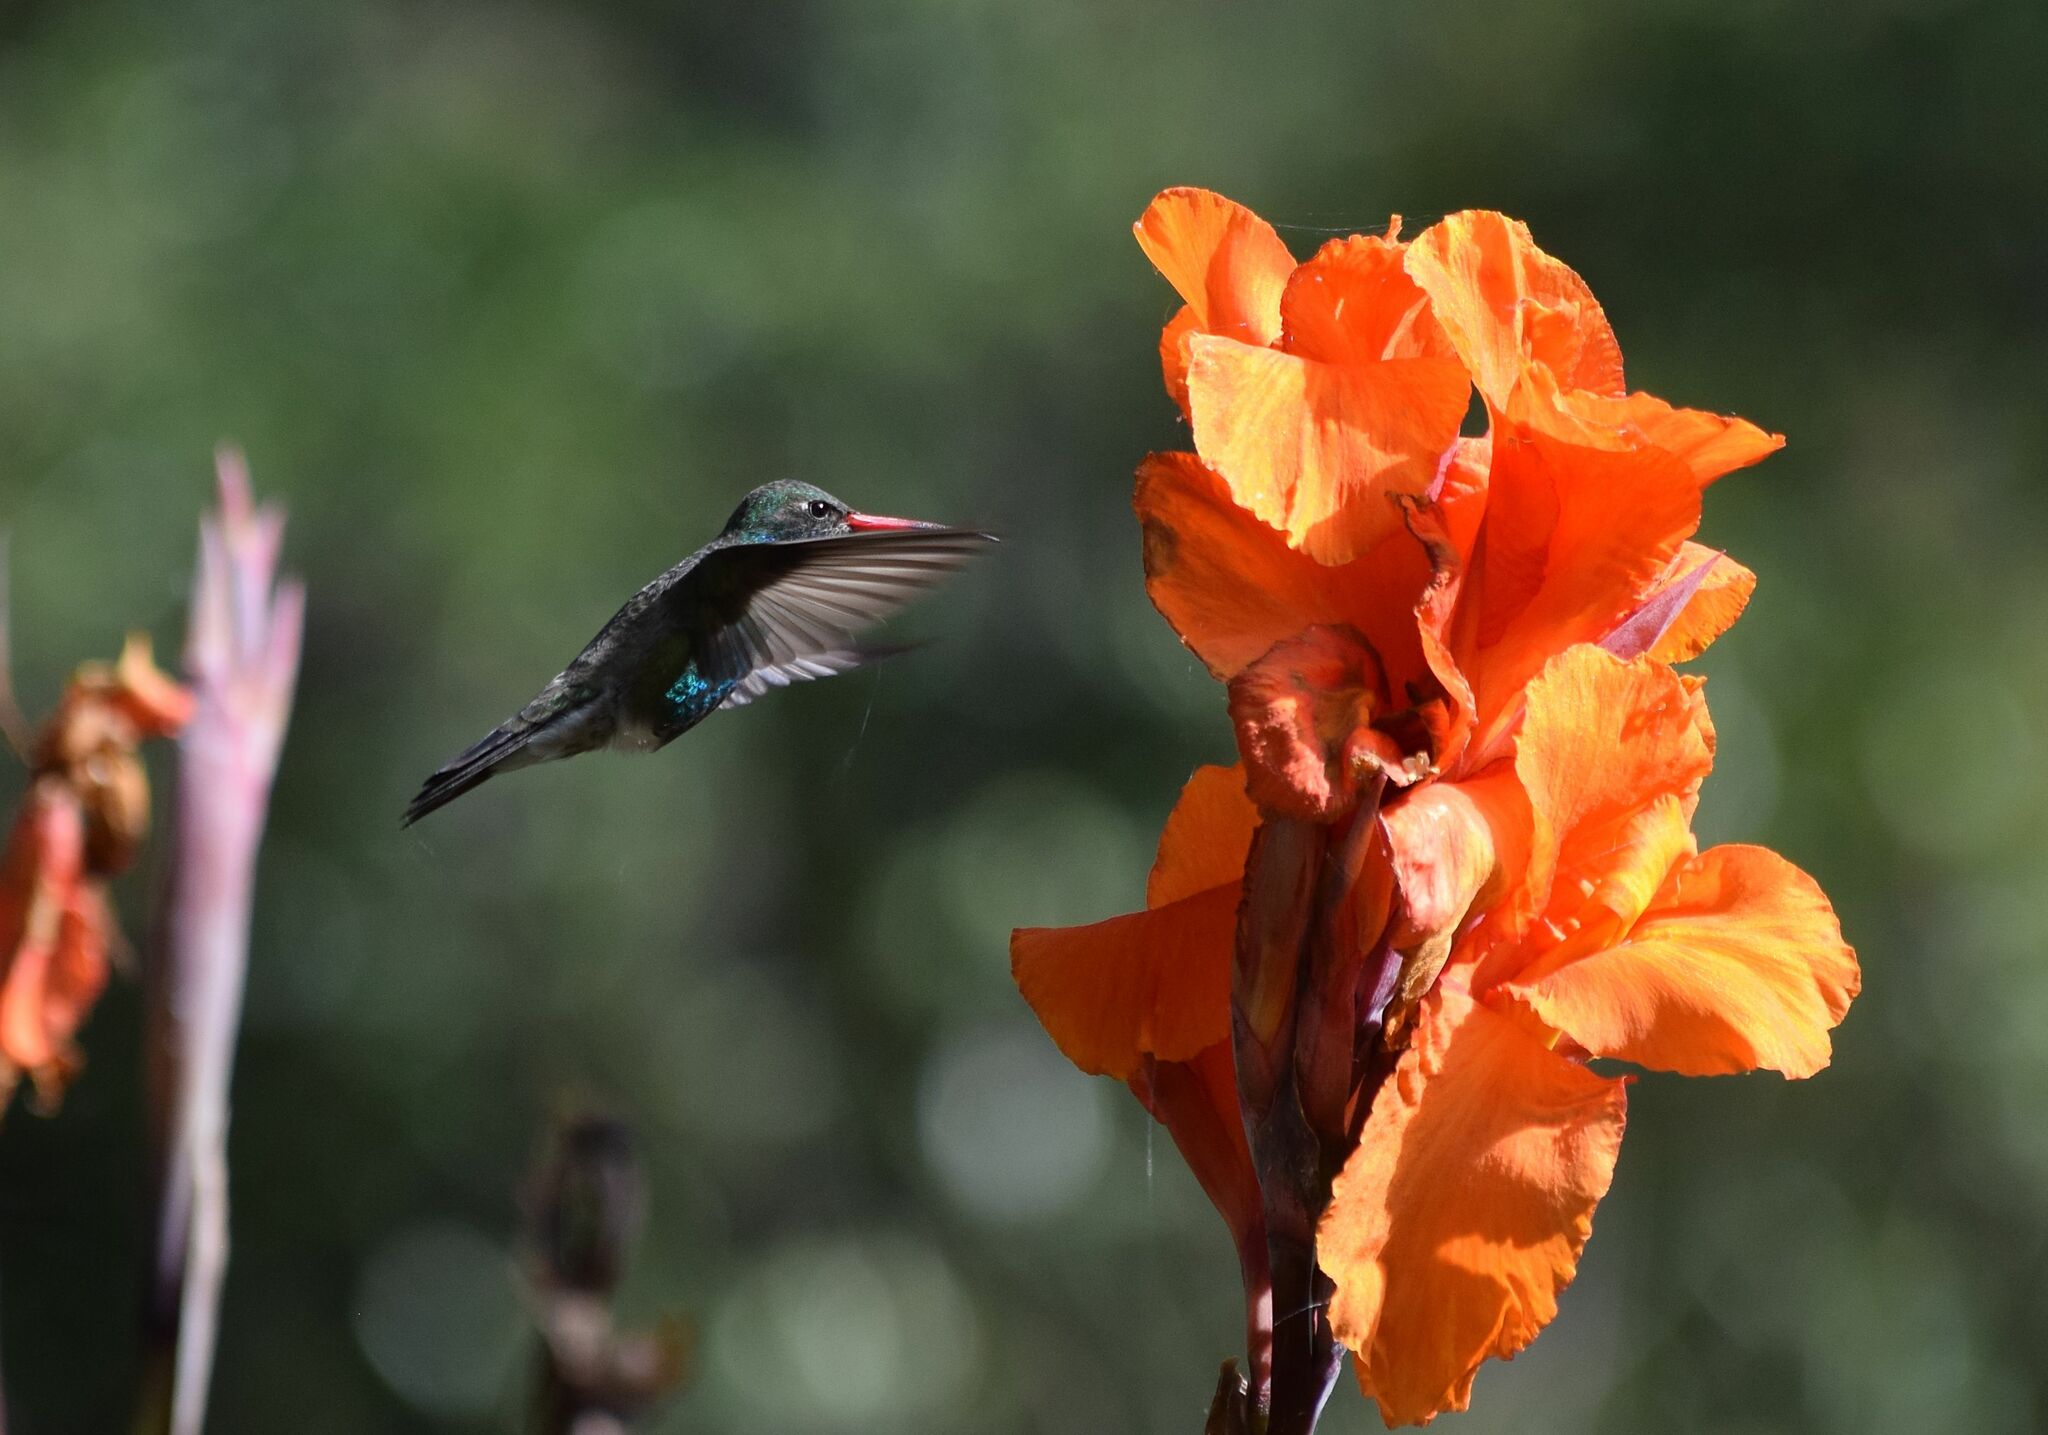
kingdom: Animalia
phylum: Chordata
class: Aves
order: Apodiformes
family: Trochilidae
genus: Cynanthus
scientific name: Cynanthus latirostris
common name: Broad-billed hummingbird
